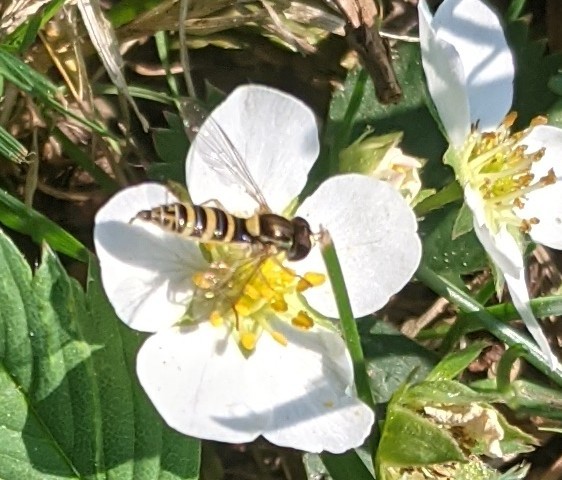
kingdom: Animalia
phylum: Arthropoda
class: Insecta
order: Diptera
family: Syrphidae
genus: Sphaerophoria
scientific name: Sphaerophoria
